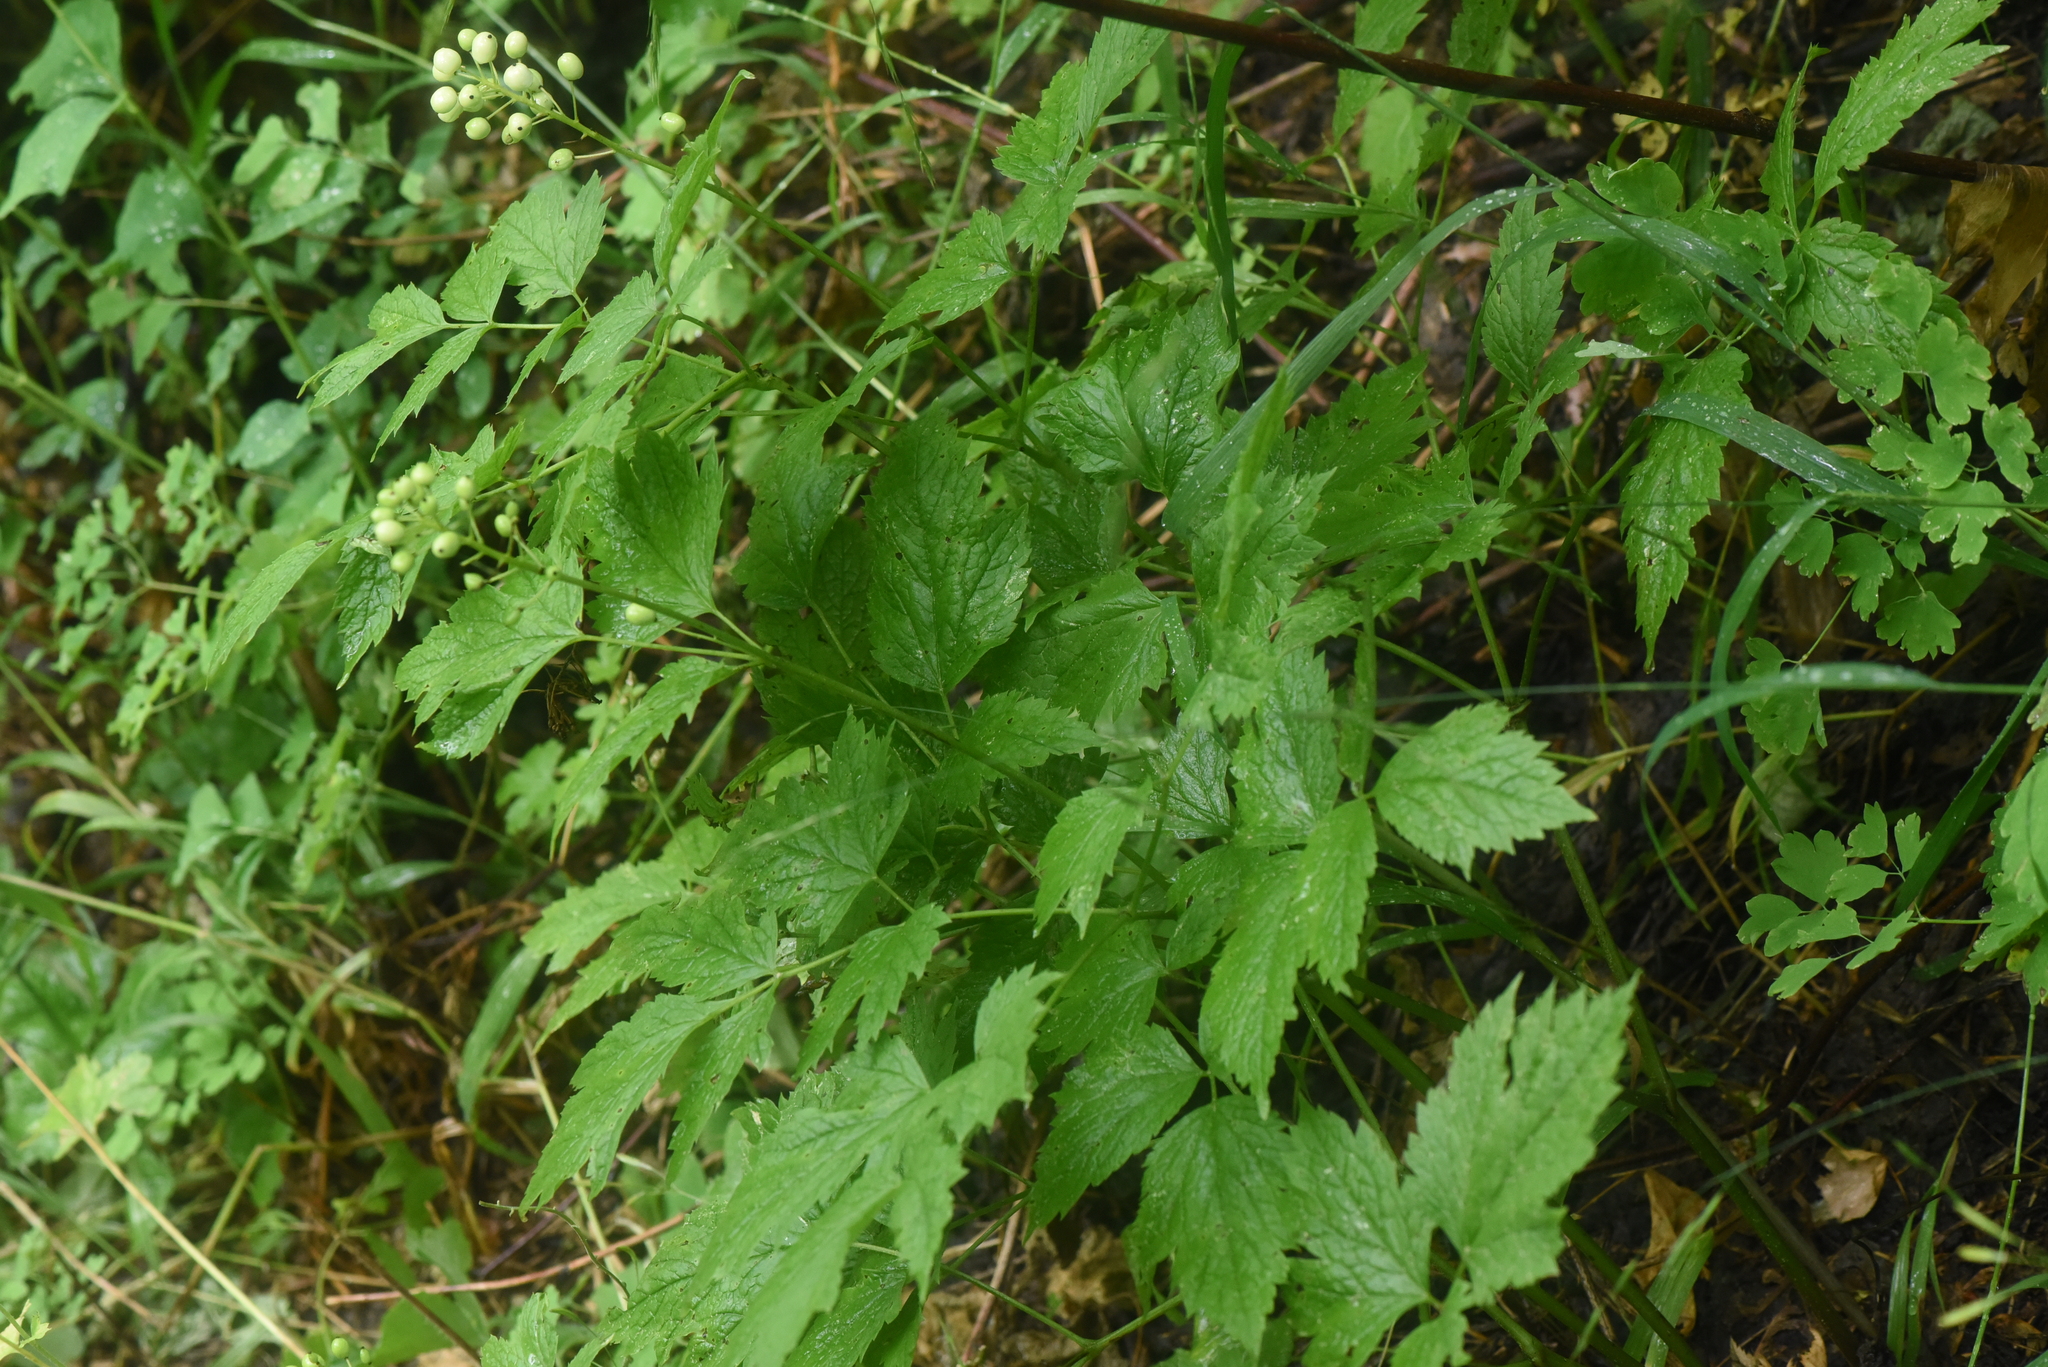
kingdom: Plantae
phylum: Tracheophyta
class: Magnoliopsida
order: Ranunculales
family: Ranunculaceae
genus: Actaea
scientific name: Actaea rubra
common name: Red baneberry
